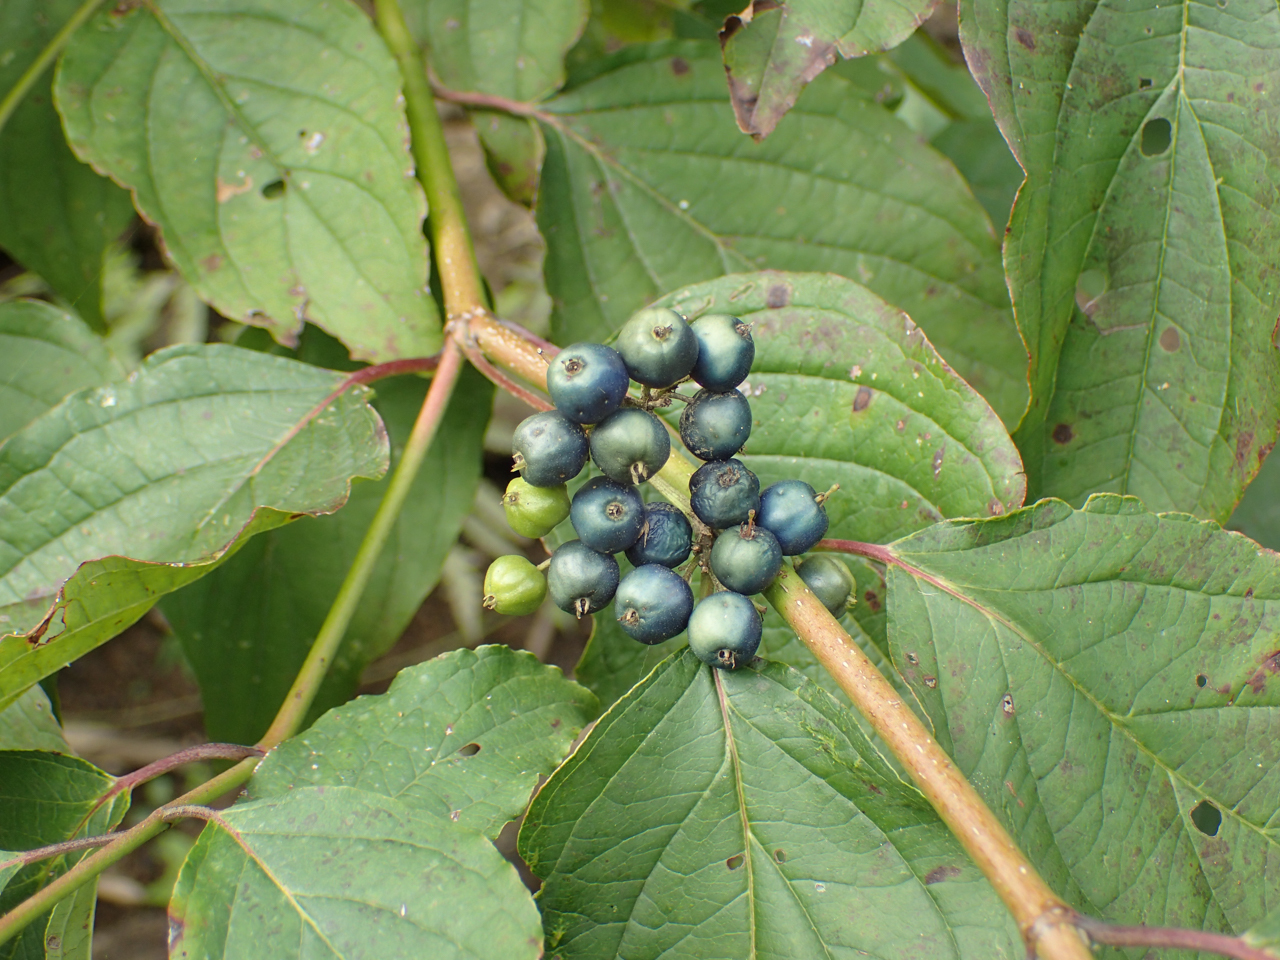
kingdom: Plantae
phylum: Tracheophyta
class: Magnoliopsida
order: Cornales
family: Cornaceae
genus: Cornus
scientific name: Cornus amomum
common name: Silky dogwood
